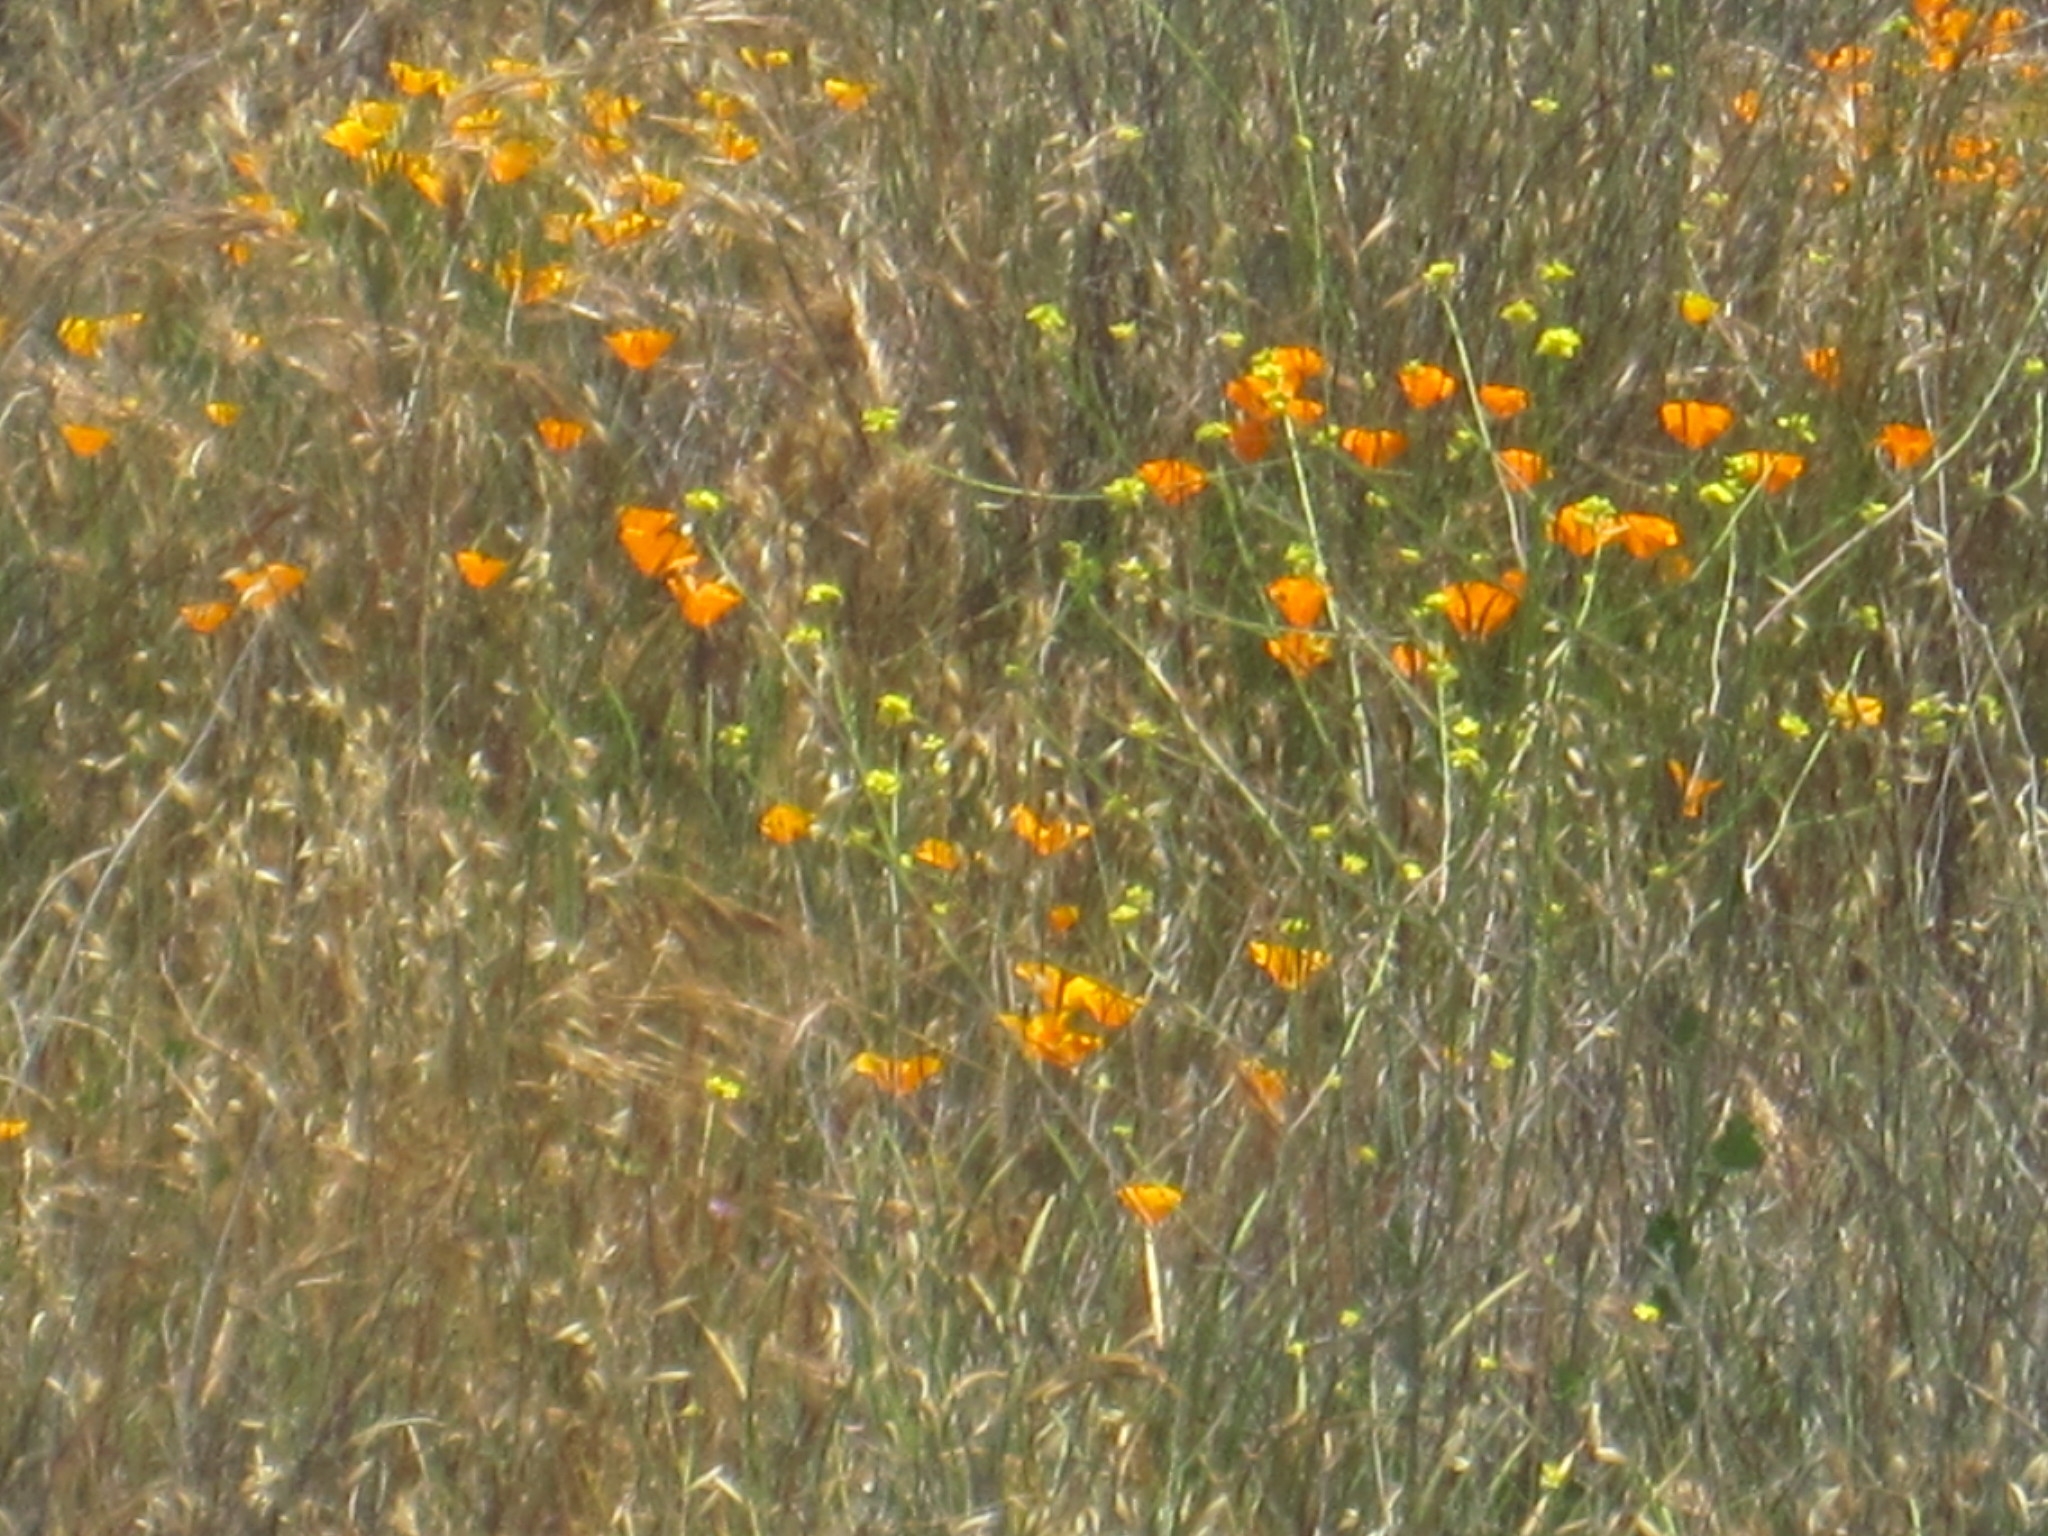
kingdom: Plantae
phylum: Tracheophyta
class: Magnoliopsida
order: Ranunculales
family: Papaveraceae
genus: Eschscholzia
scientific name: Eschscholzia californica
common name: California poppy
